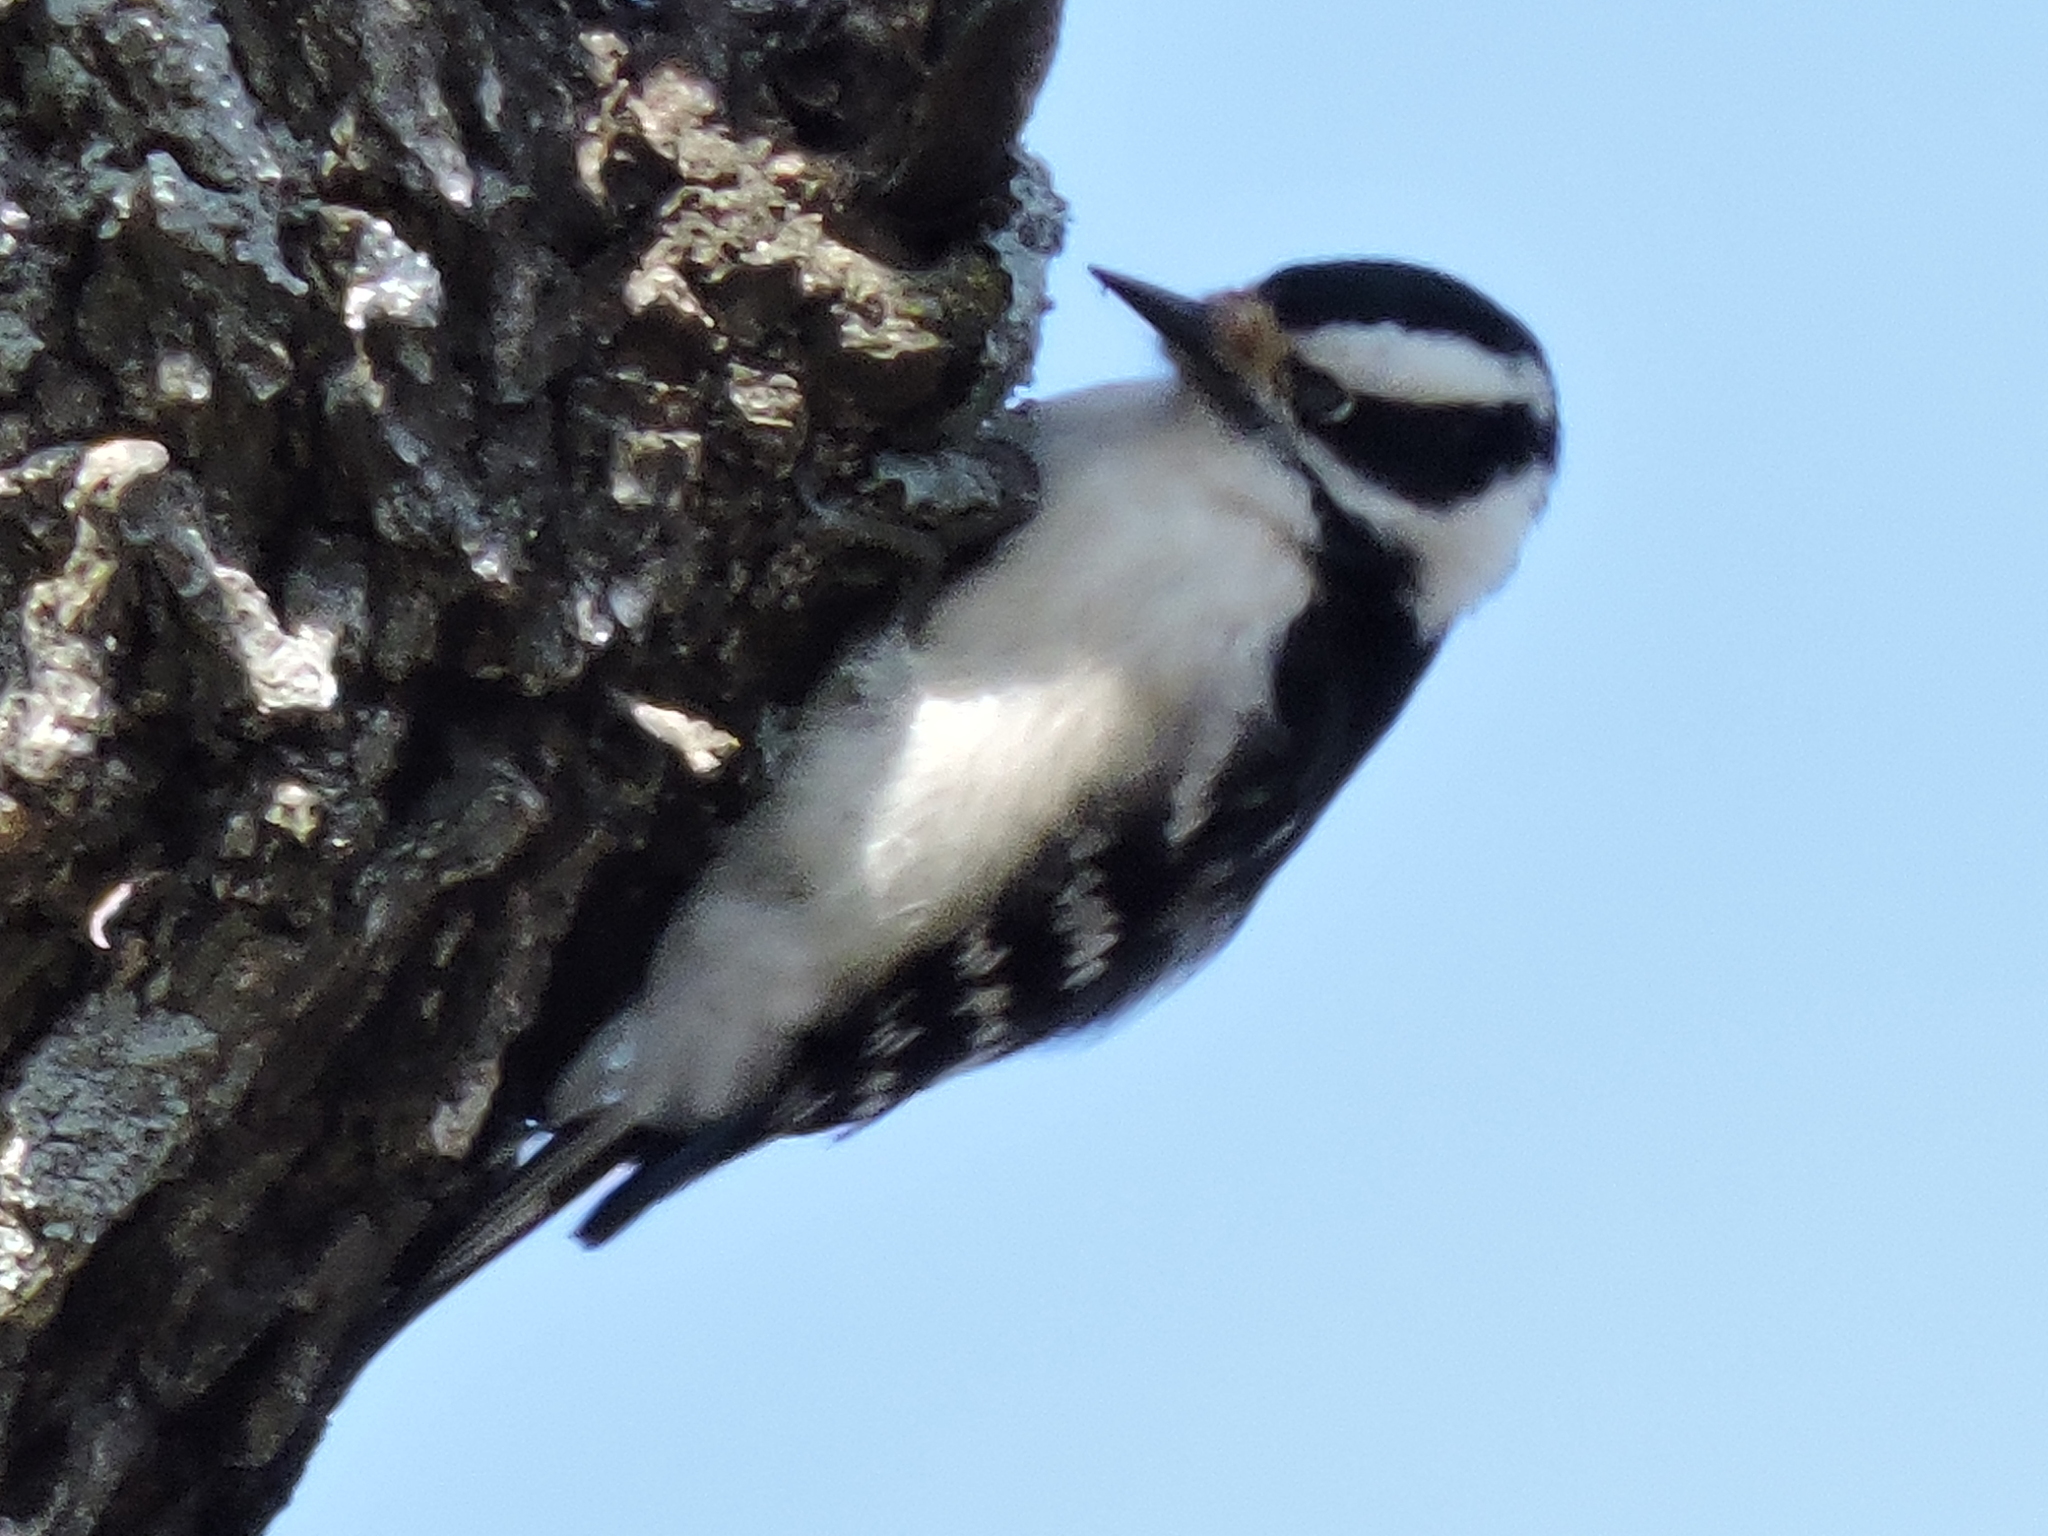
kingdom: Animalia
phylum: Chordata
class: Aves
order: Piciformes
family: Picidae
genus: Dryobates
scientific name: Dryobates pubescens
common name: Downy woodpecker
